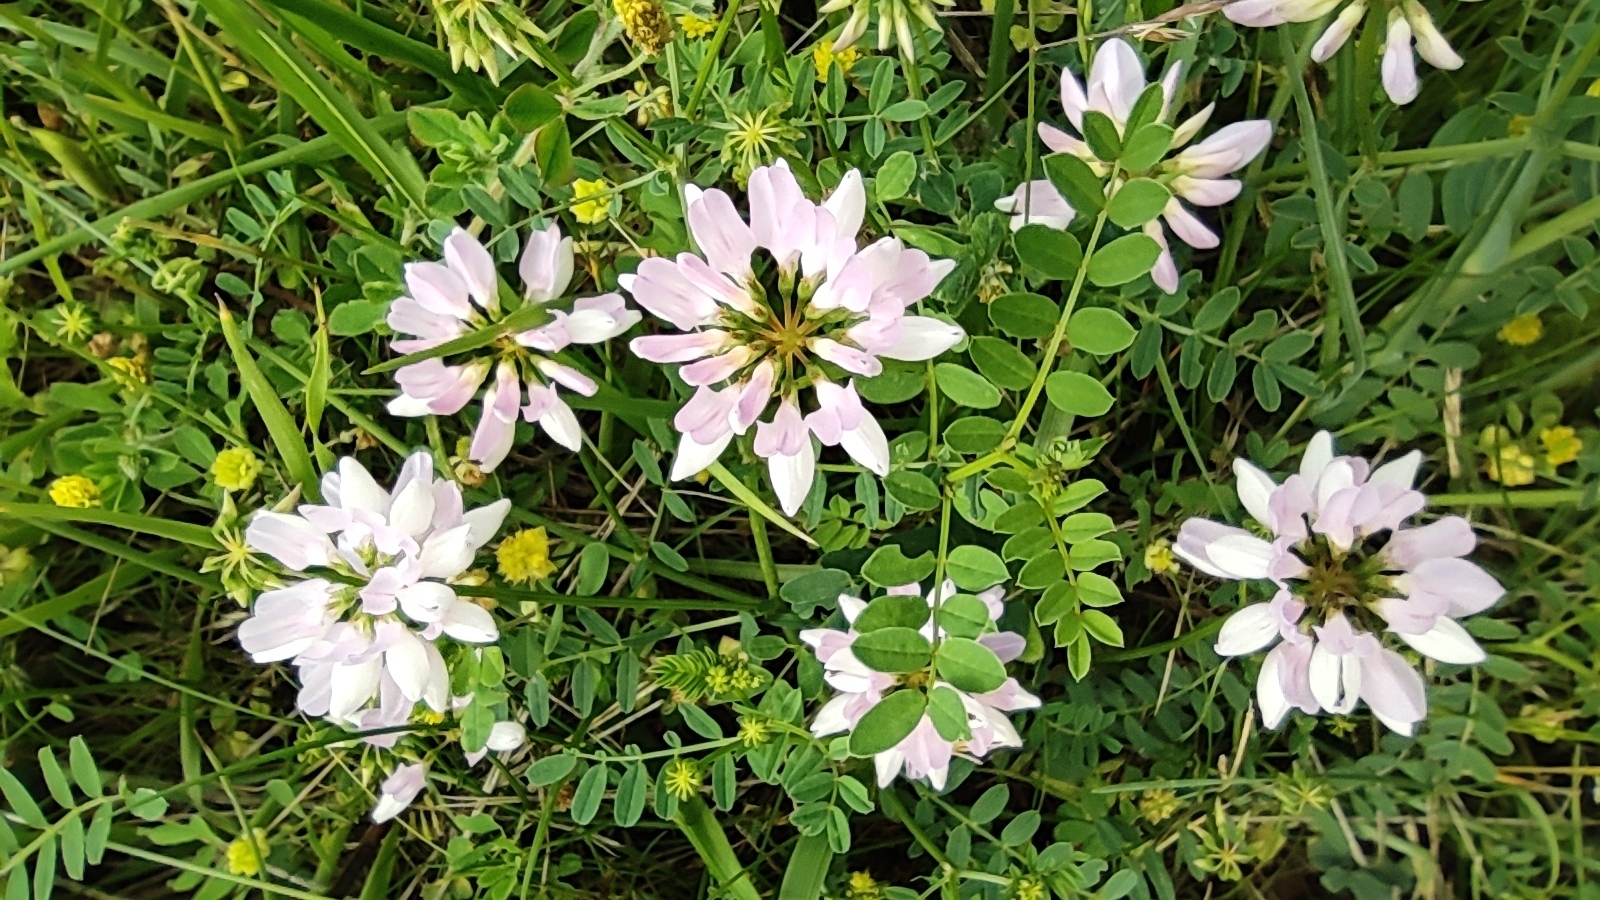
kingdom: Plantae
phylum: Tracheophyta
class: Magnoliopsida
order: Fabales
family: Fabaceae
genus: Coronilla
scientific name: Coronilla varia
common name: Crownvetch
